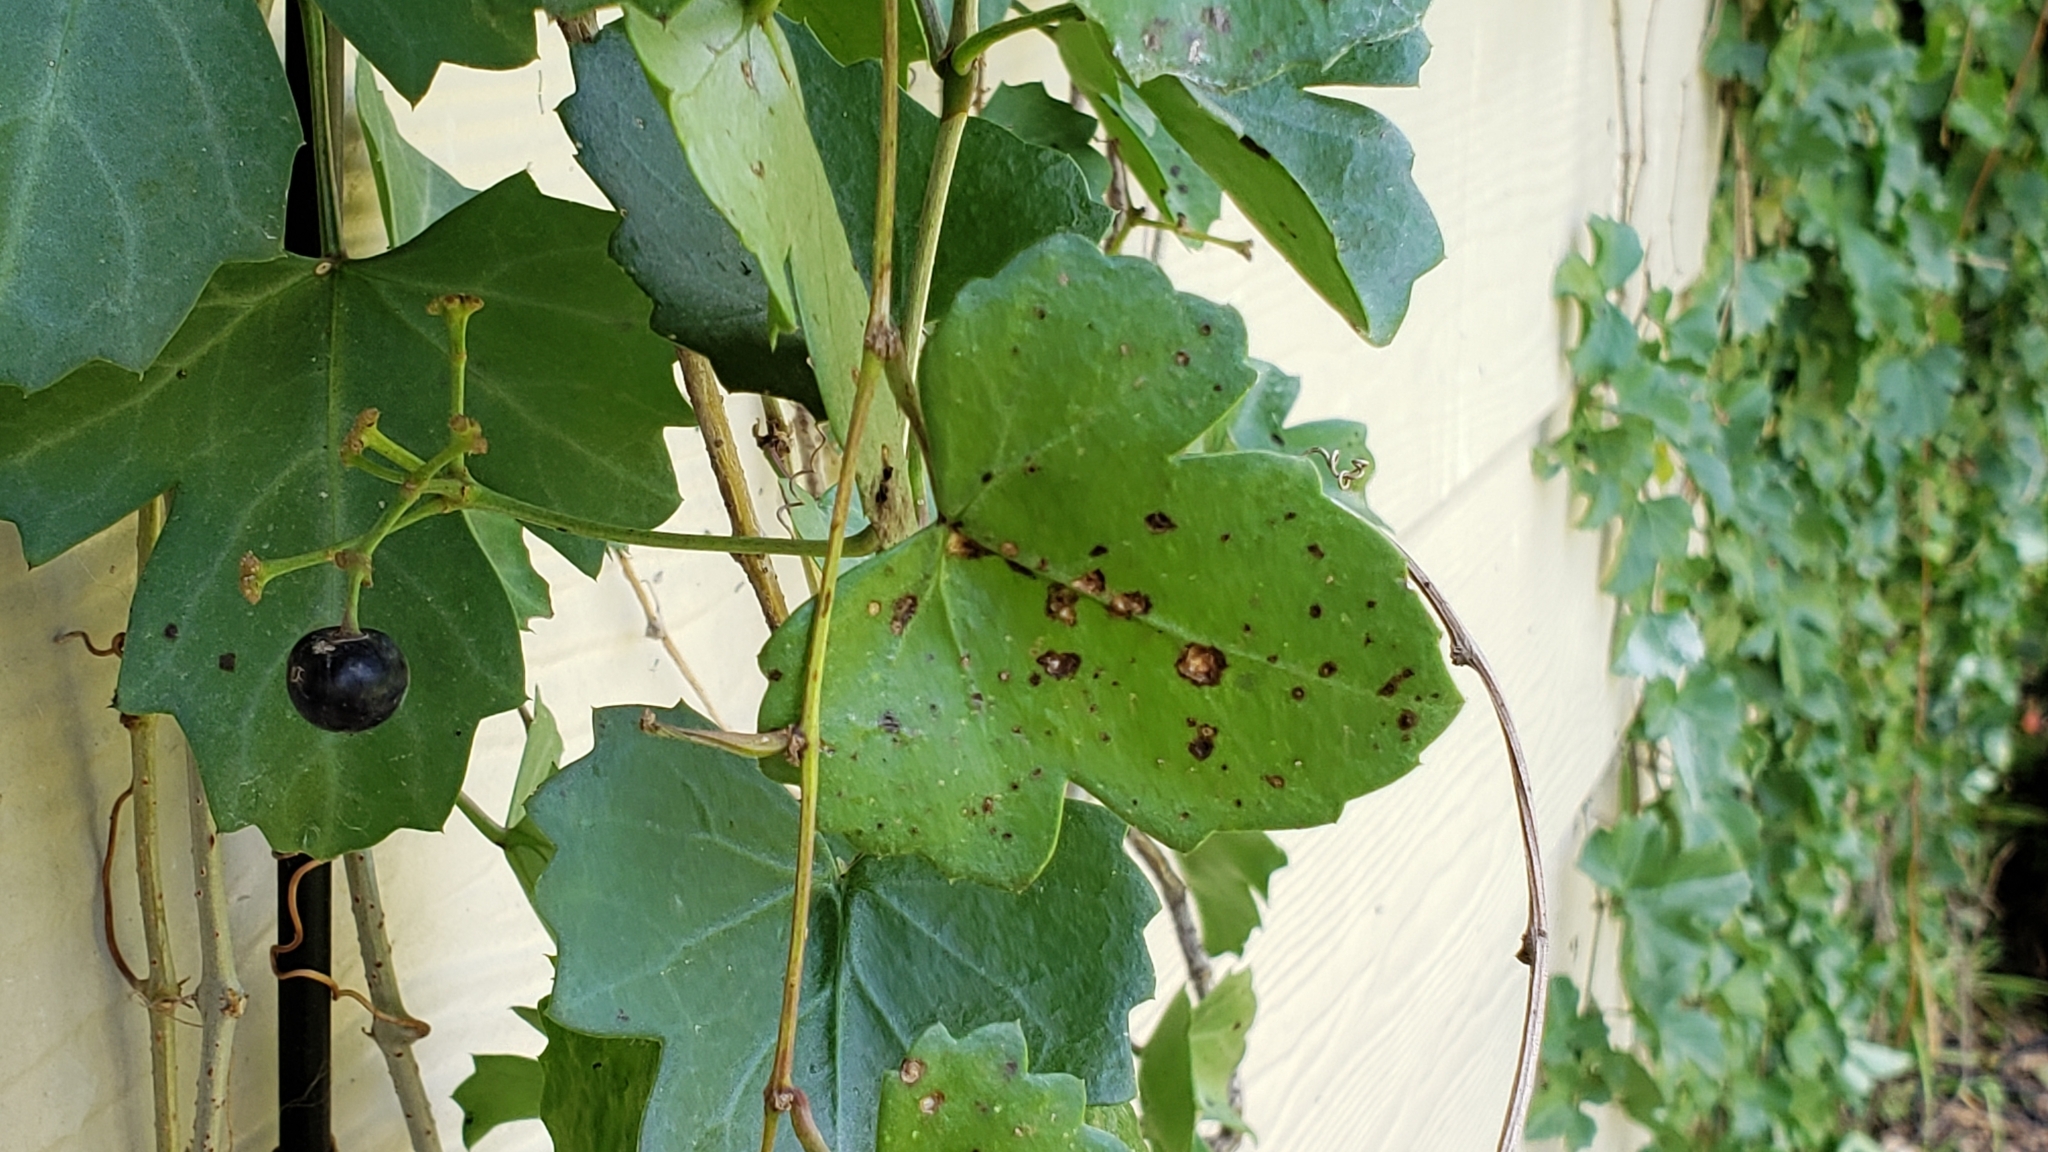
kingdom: Plantae
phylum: Tracheophyta
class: Magnoliopsida
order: Vitales
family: Vitaceae
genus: Cissus
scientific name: Cissus trifoliata
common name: Vine-sorrel
